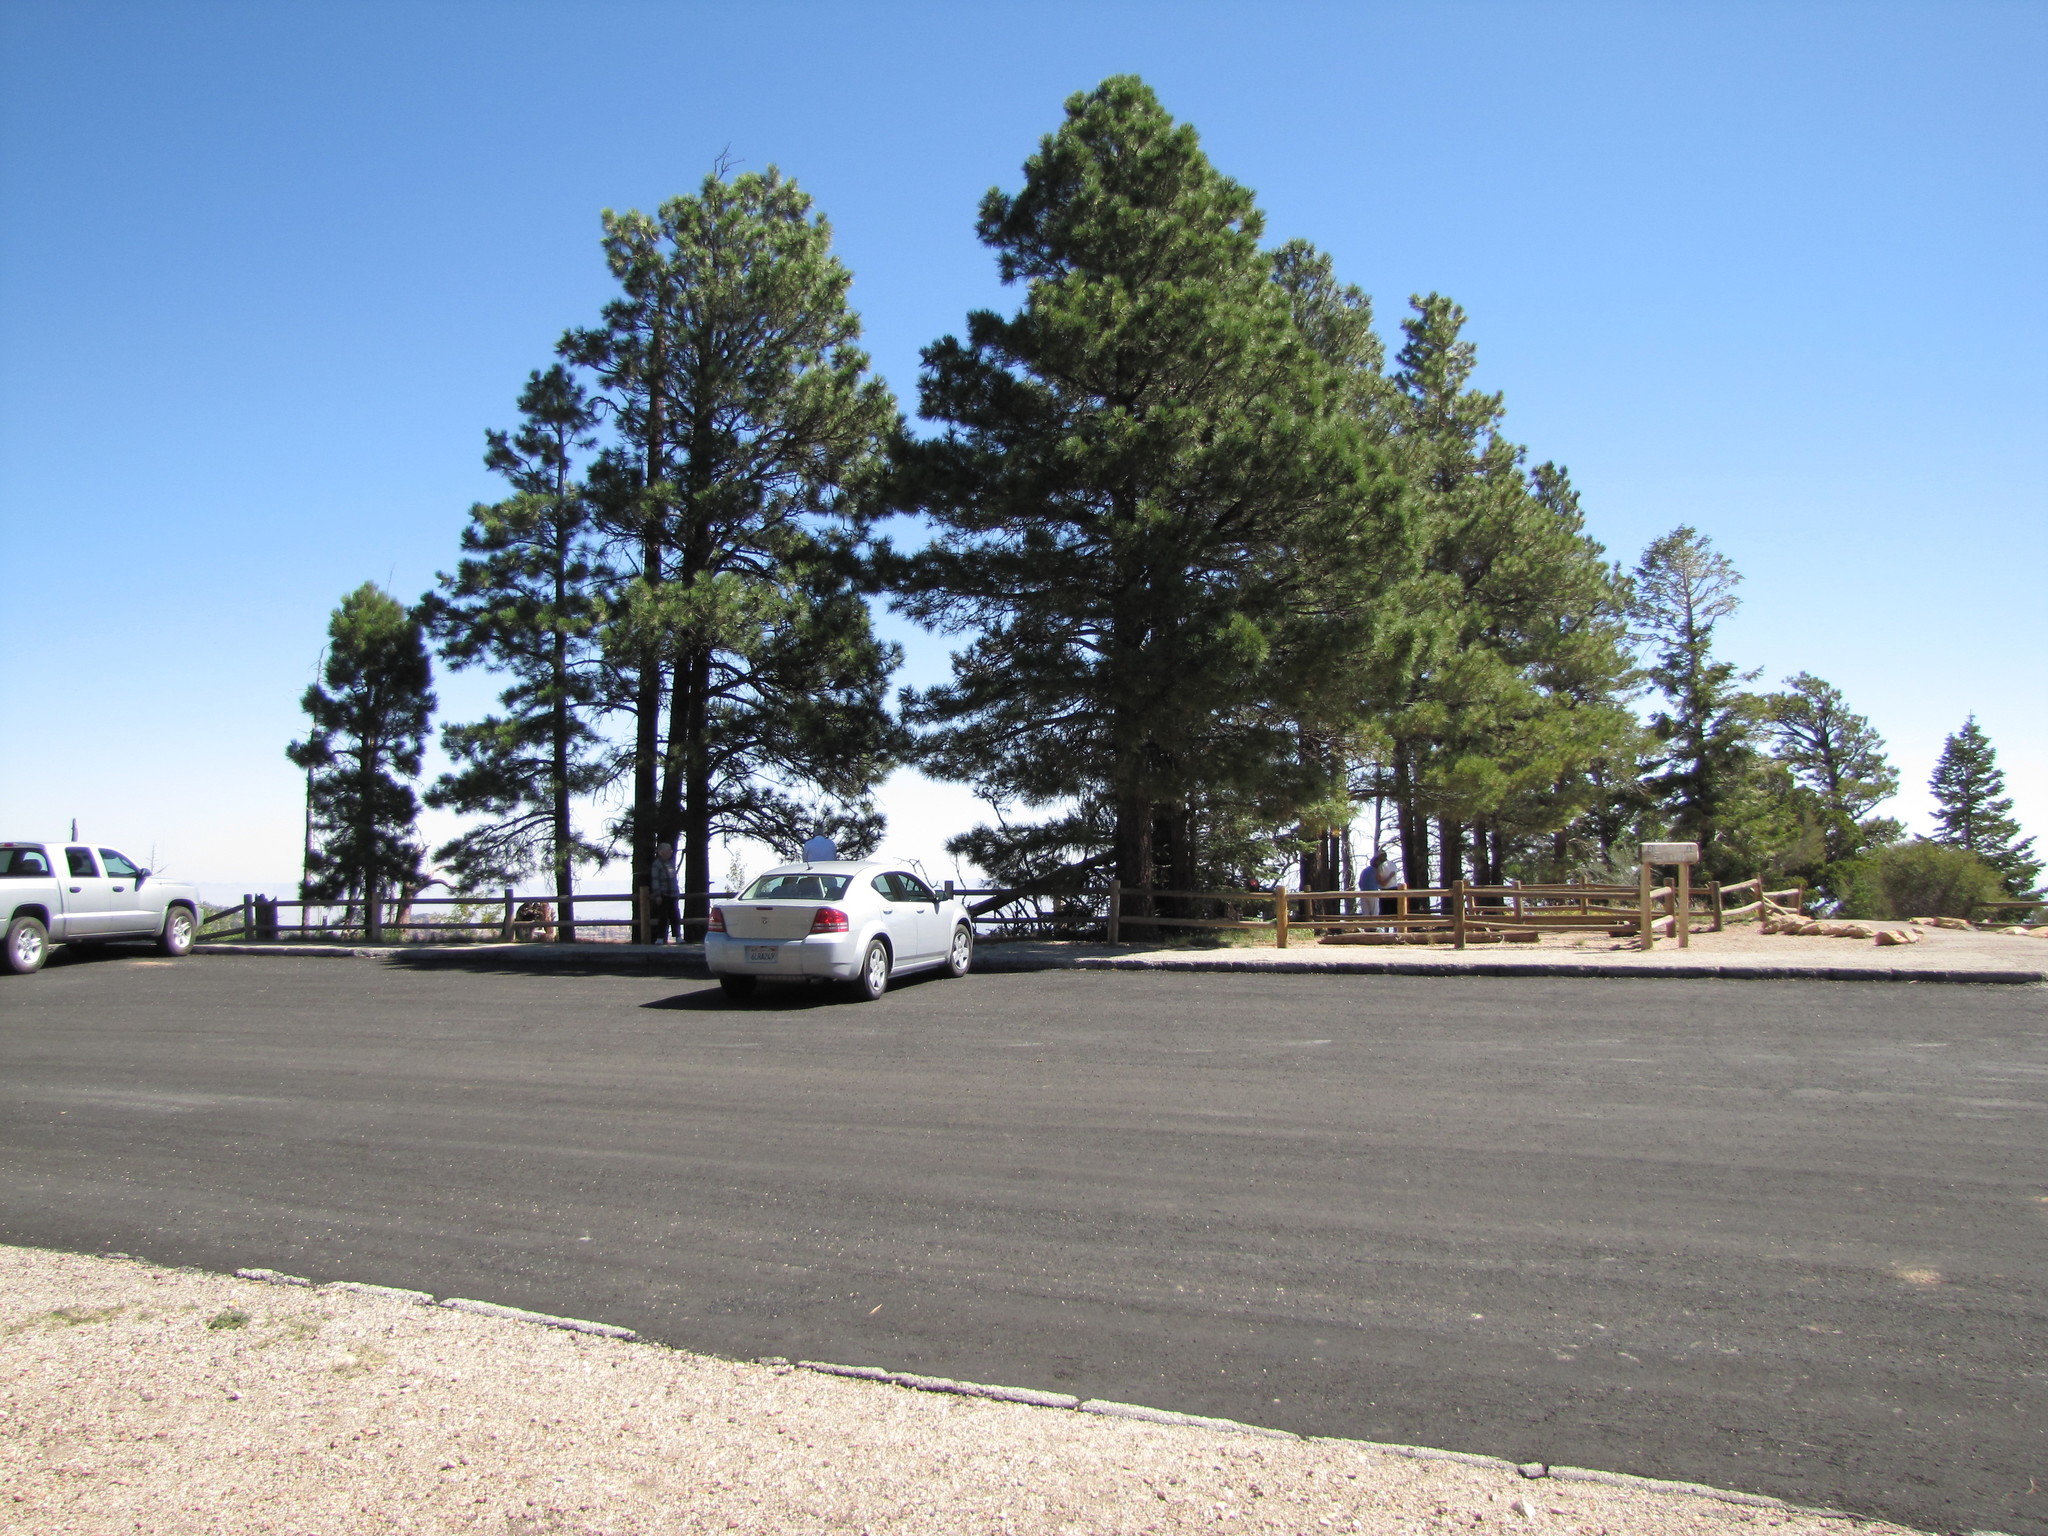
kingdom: Plantae
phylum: Tracheophyta
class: Pinopsida
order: Pinales
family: Pinaceae
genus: Pinus
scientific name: Pinus ponderosa
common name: Western yellow-pine
